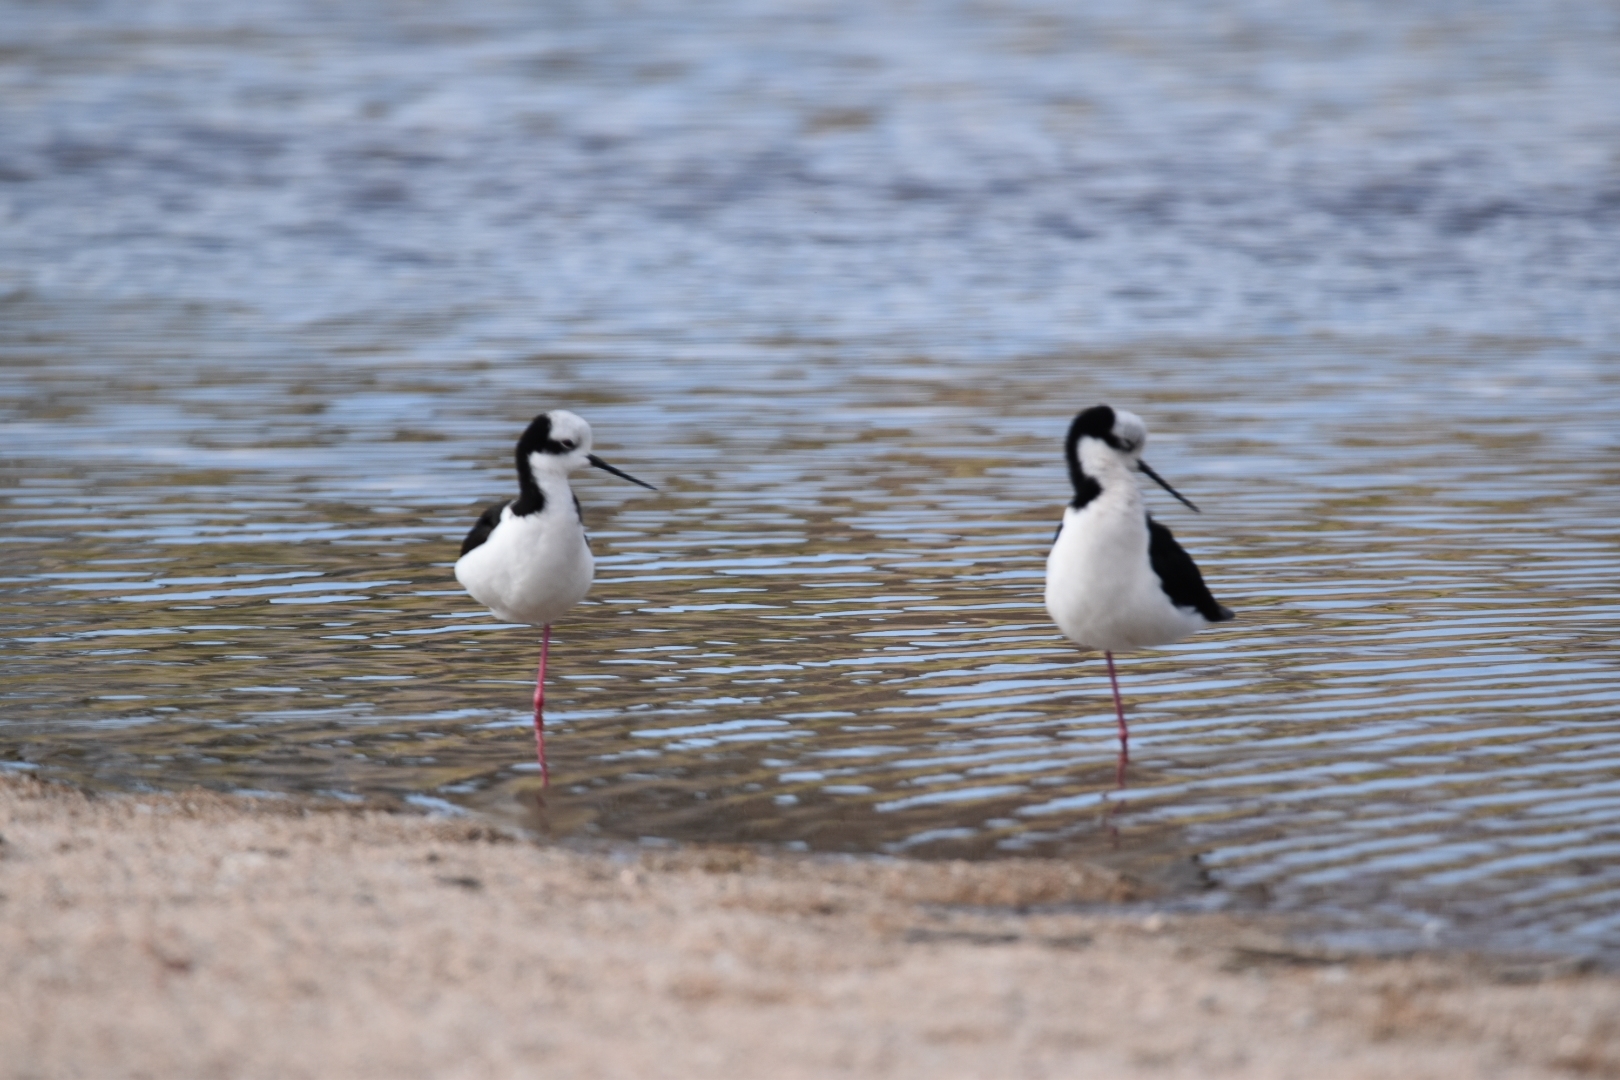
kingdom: Animalia
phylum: Chordata
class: Aves
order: Charadriiformes
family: Recurvirostridae
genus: Himantopus
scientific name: Himantopus mexicanus
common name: Black-necked stilt
